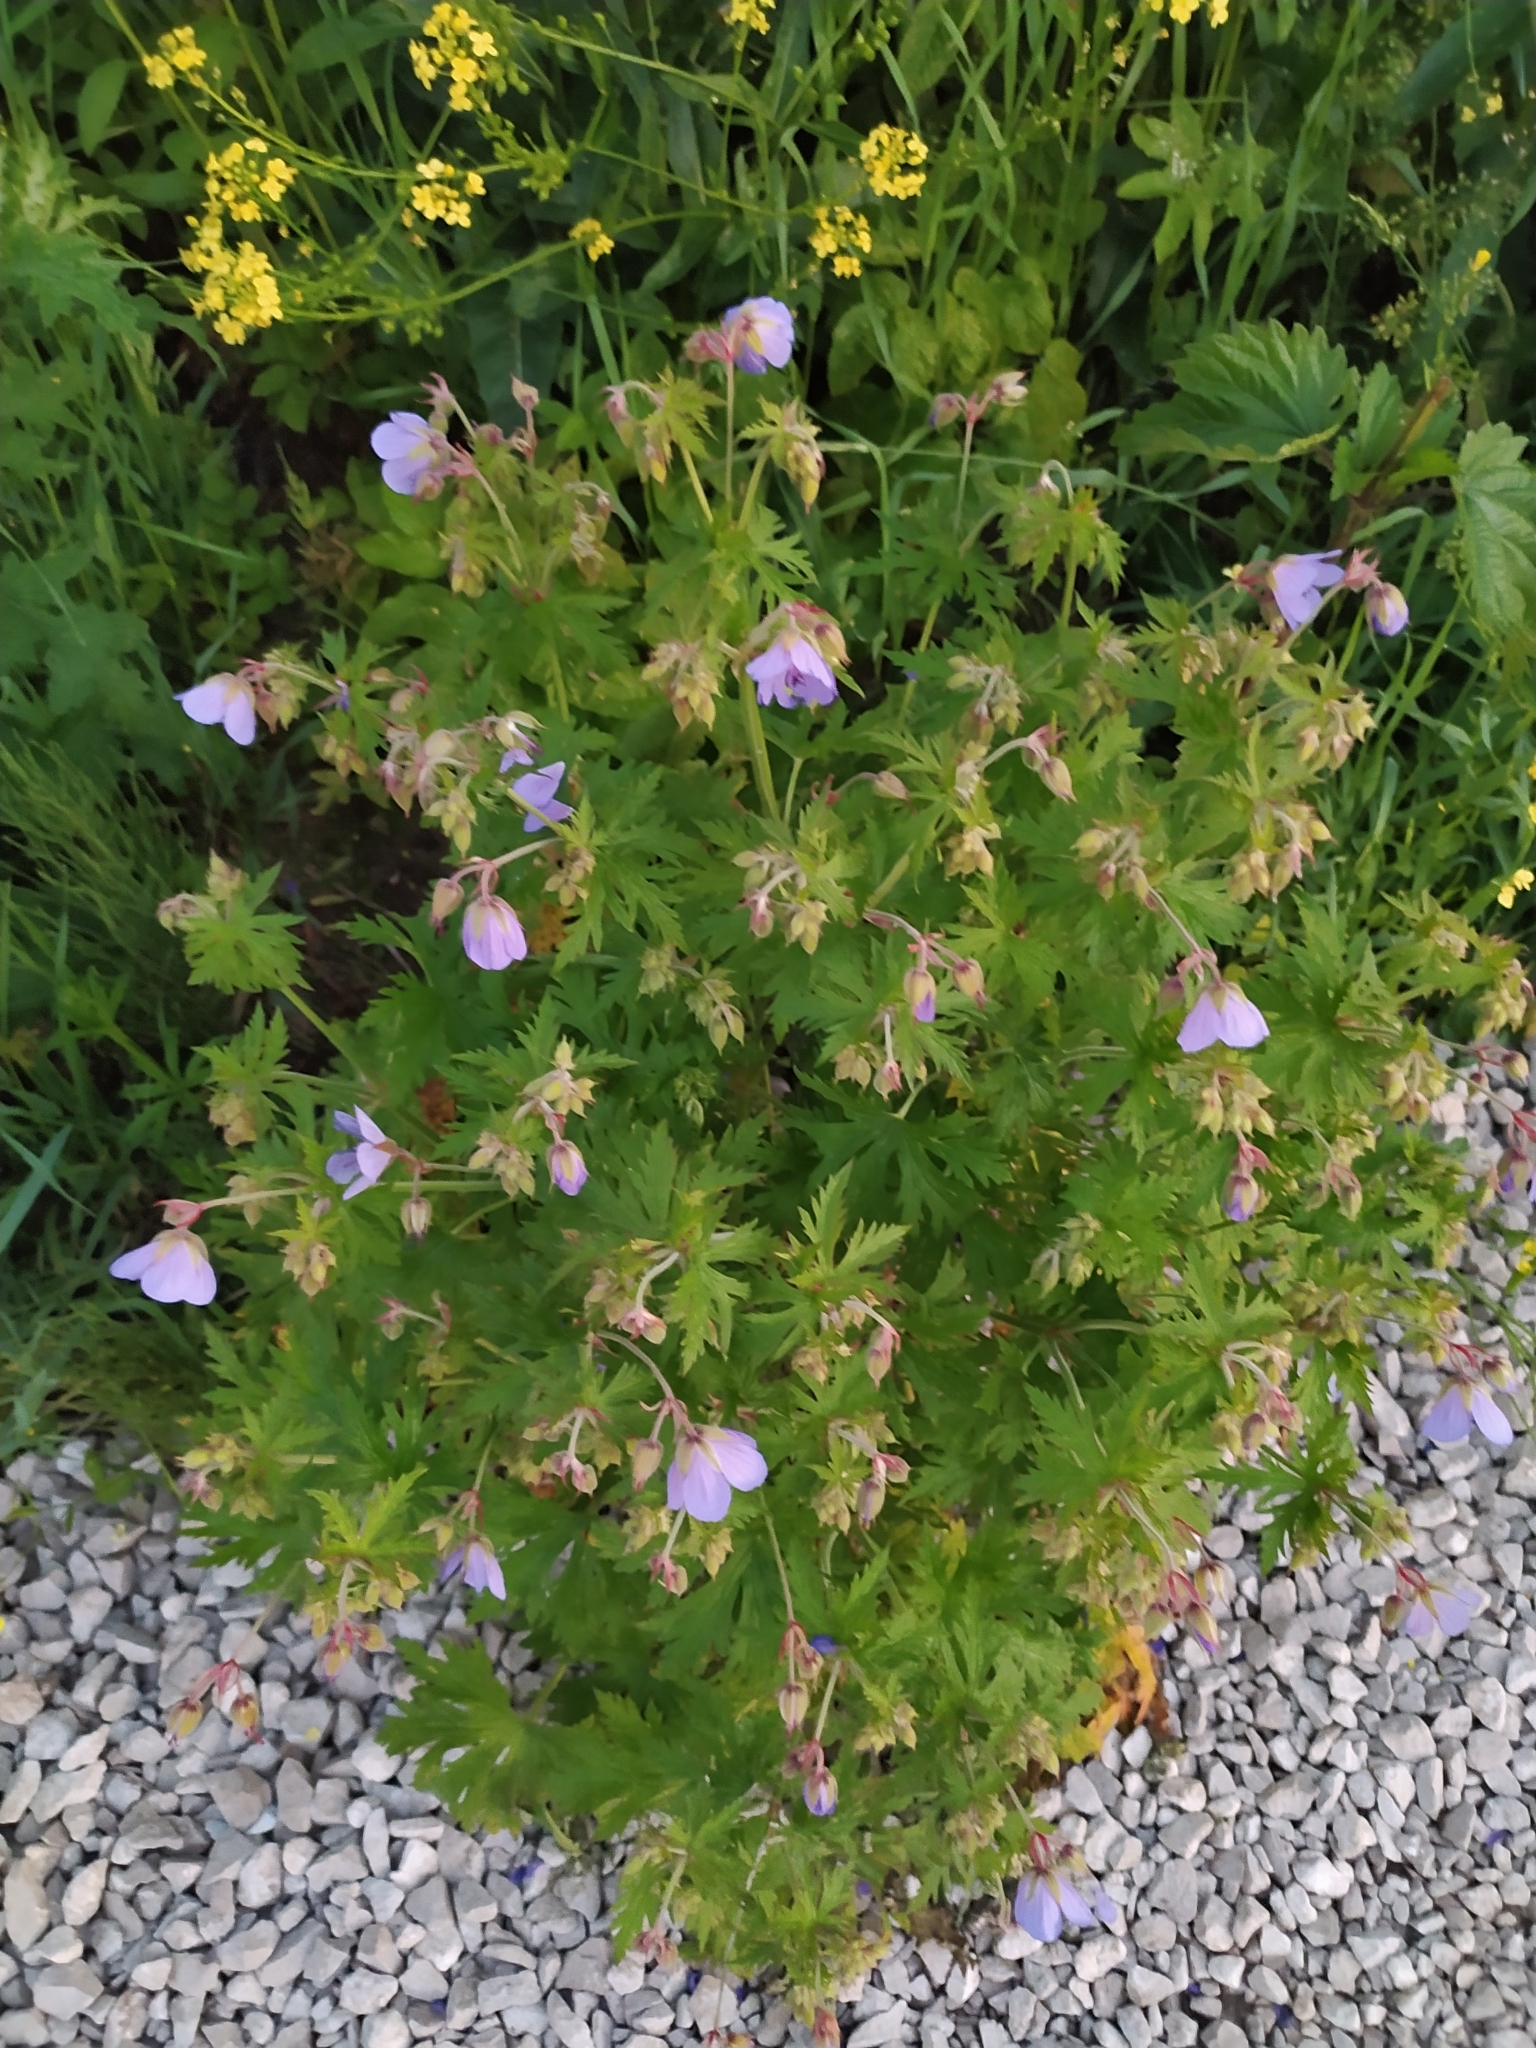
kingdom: Plantae
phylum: Tracheophyta
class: Magnoliopsida
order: Geraniales
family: Geraniaceae
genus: Geranium
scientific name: Geranium pratense
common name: Meadow crane's-bill
